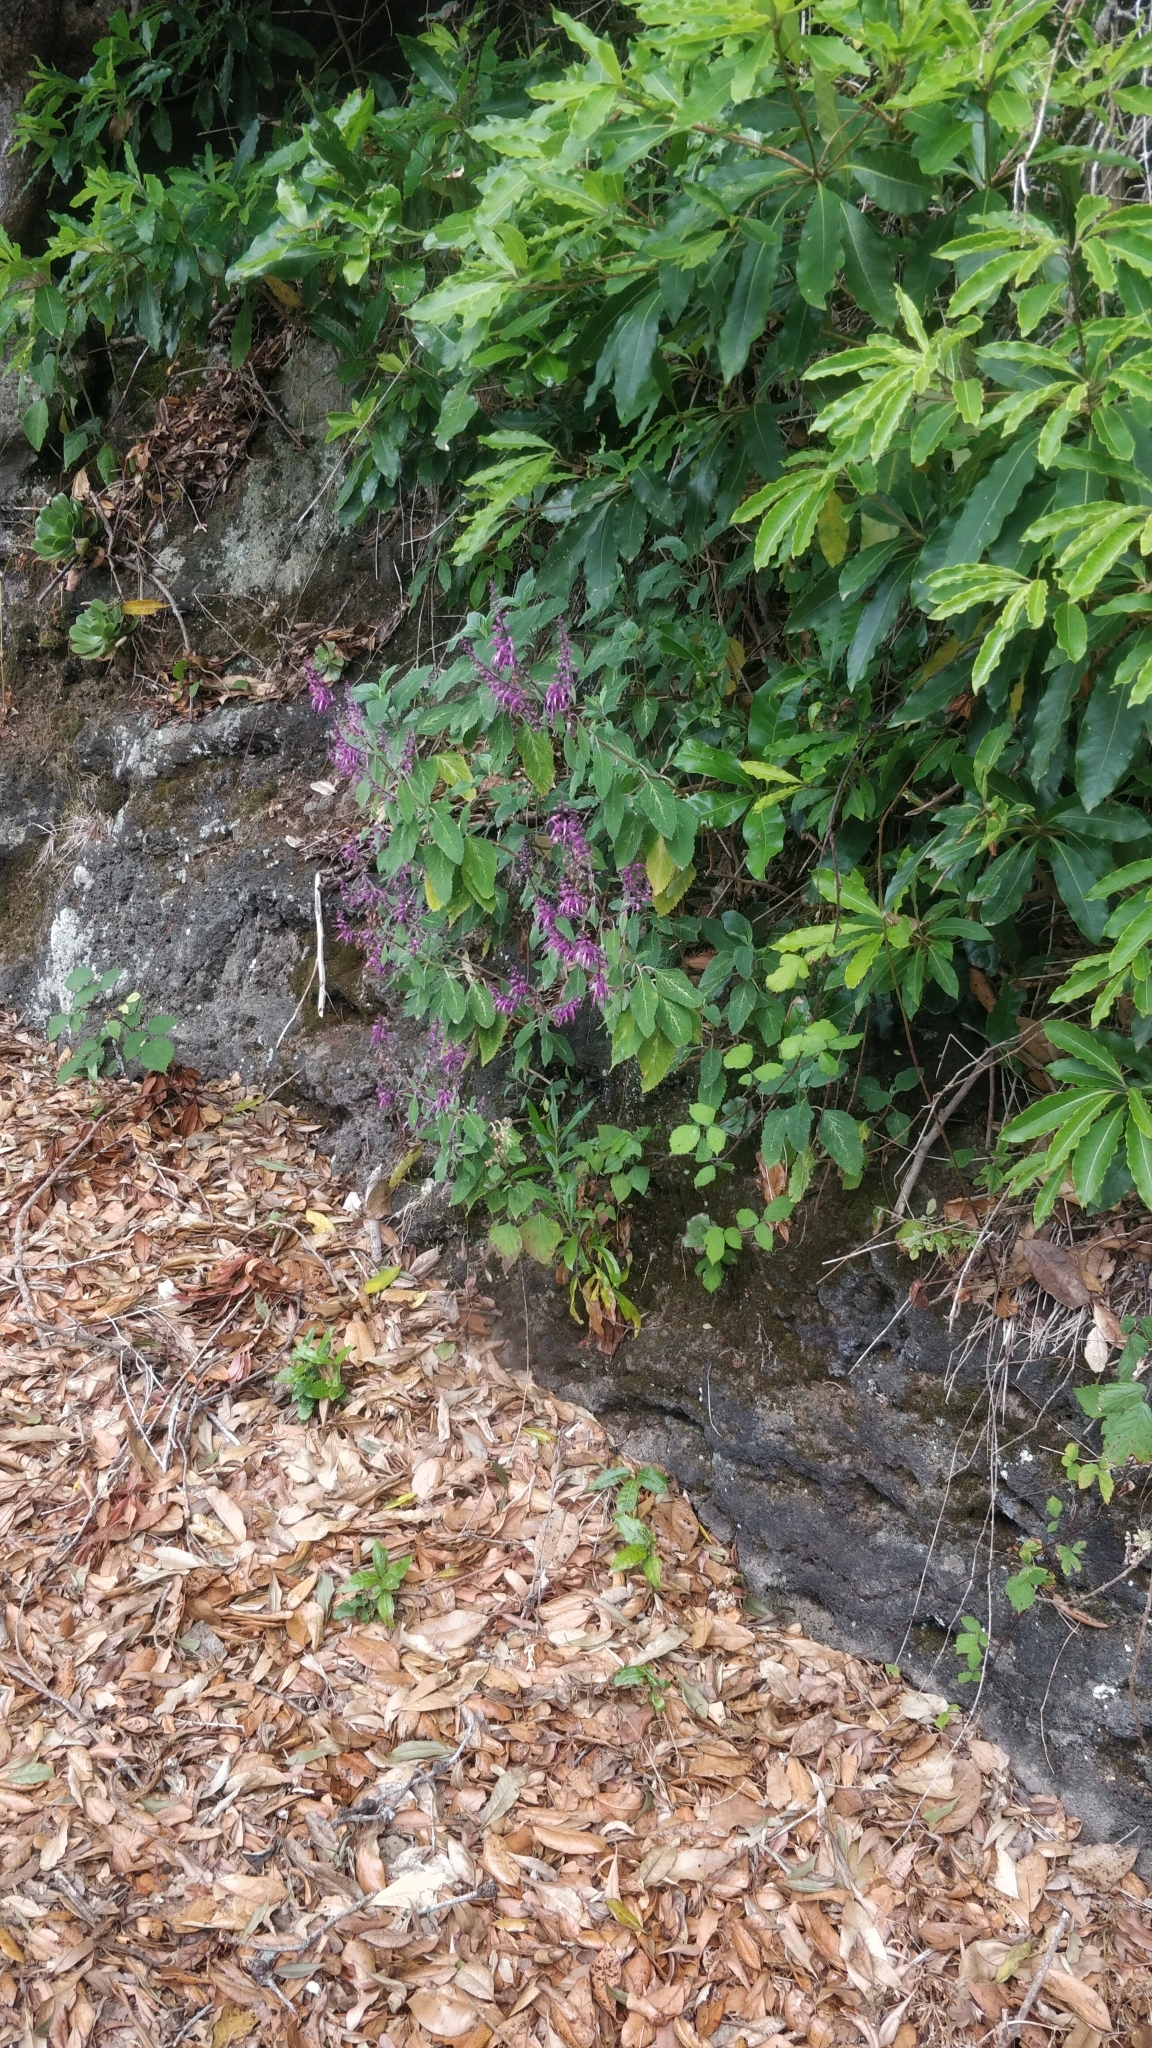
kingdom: Plantae
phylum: Tracheophyta
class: Magnoliopsida
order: Lamiales
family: Lamiaceae
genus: Teucrium
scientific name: Teucrium betonicum
